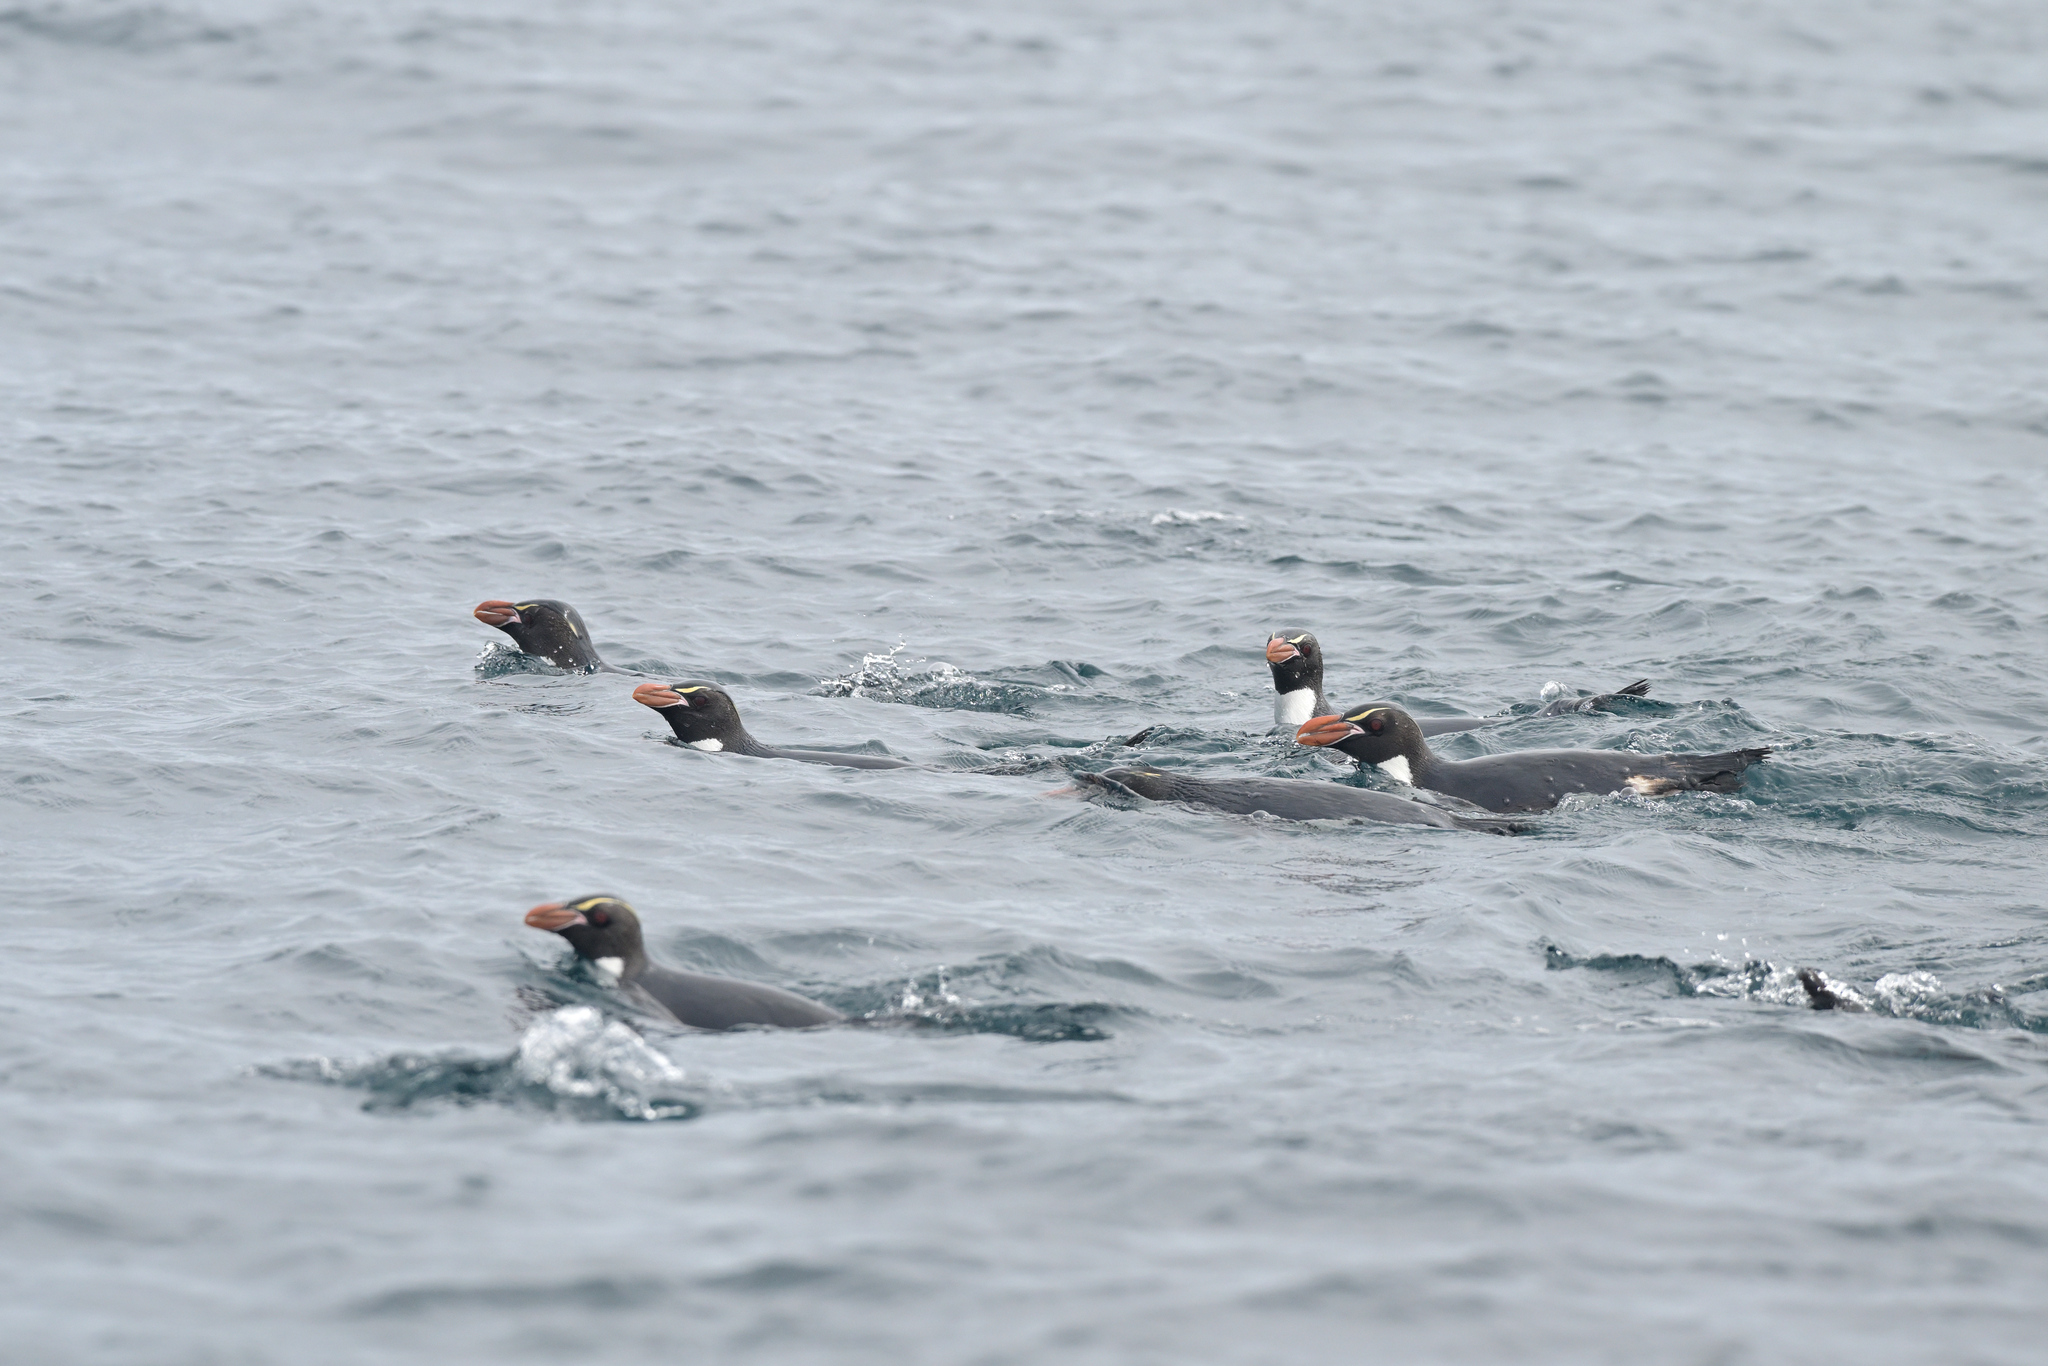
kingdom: Animalia
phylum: Chordata
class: Aves
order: Sphenisciformes
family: Spheniscidae
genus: Eudyptes
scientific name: Eudyptes robustus
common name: Snares penguin
